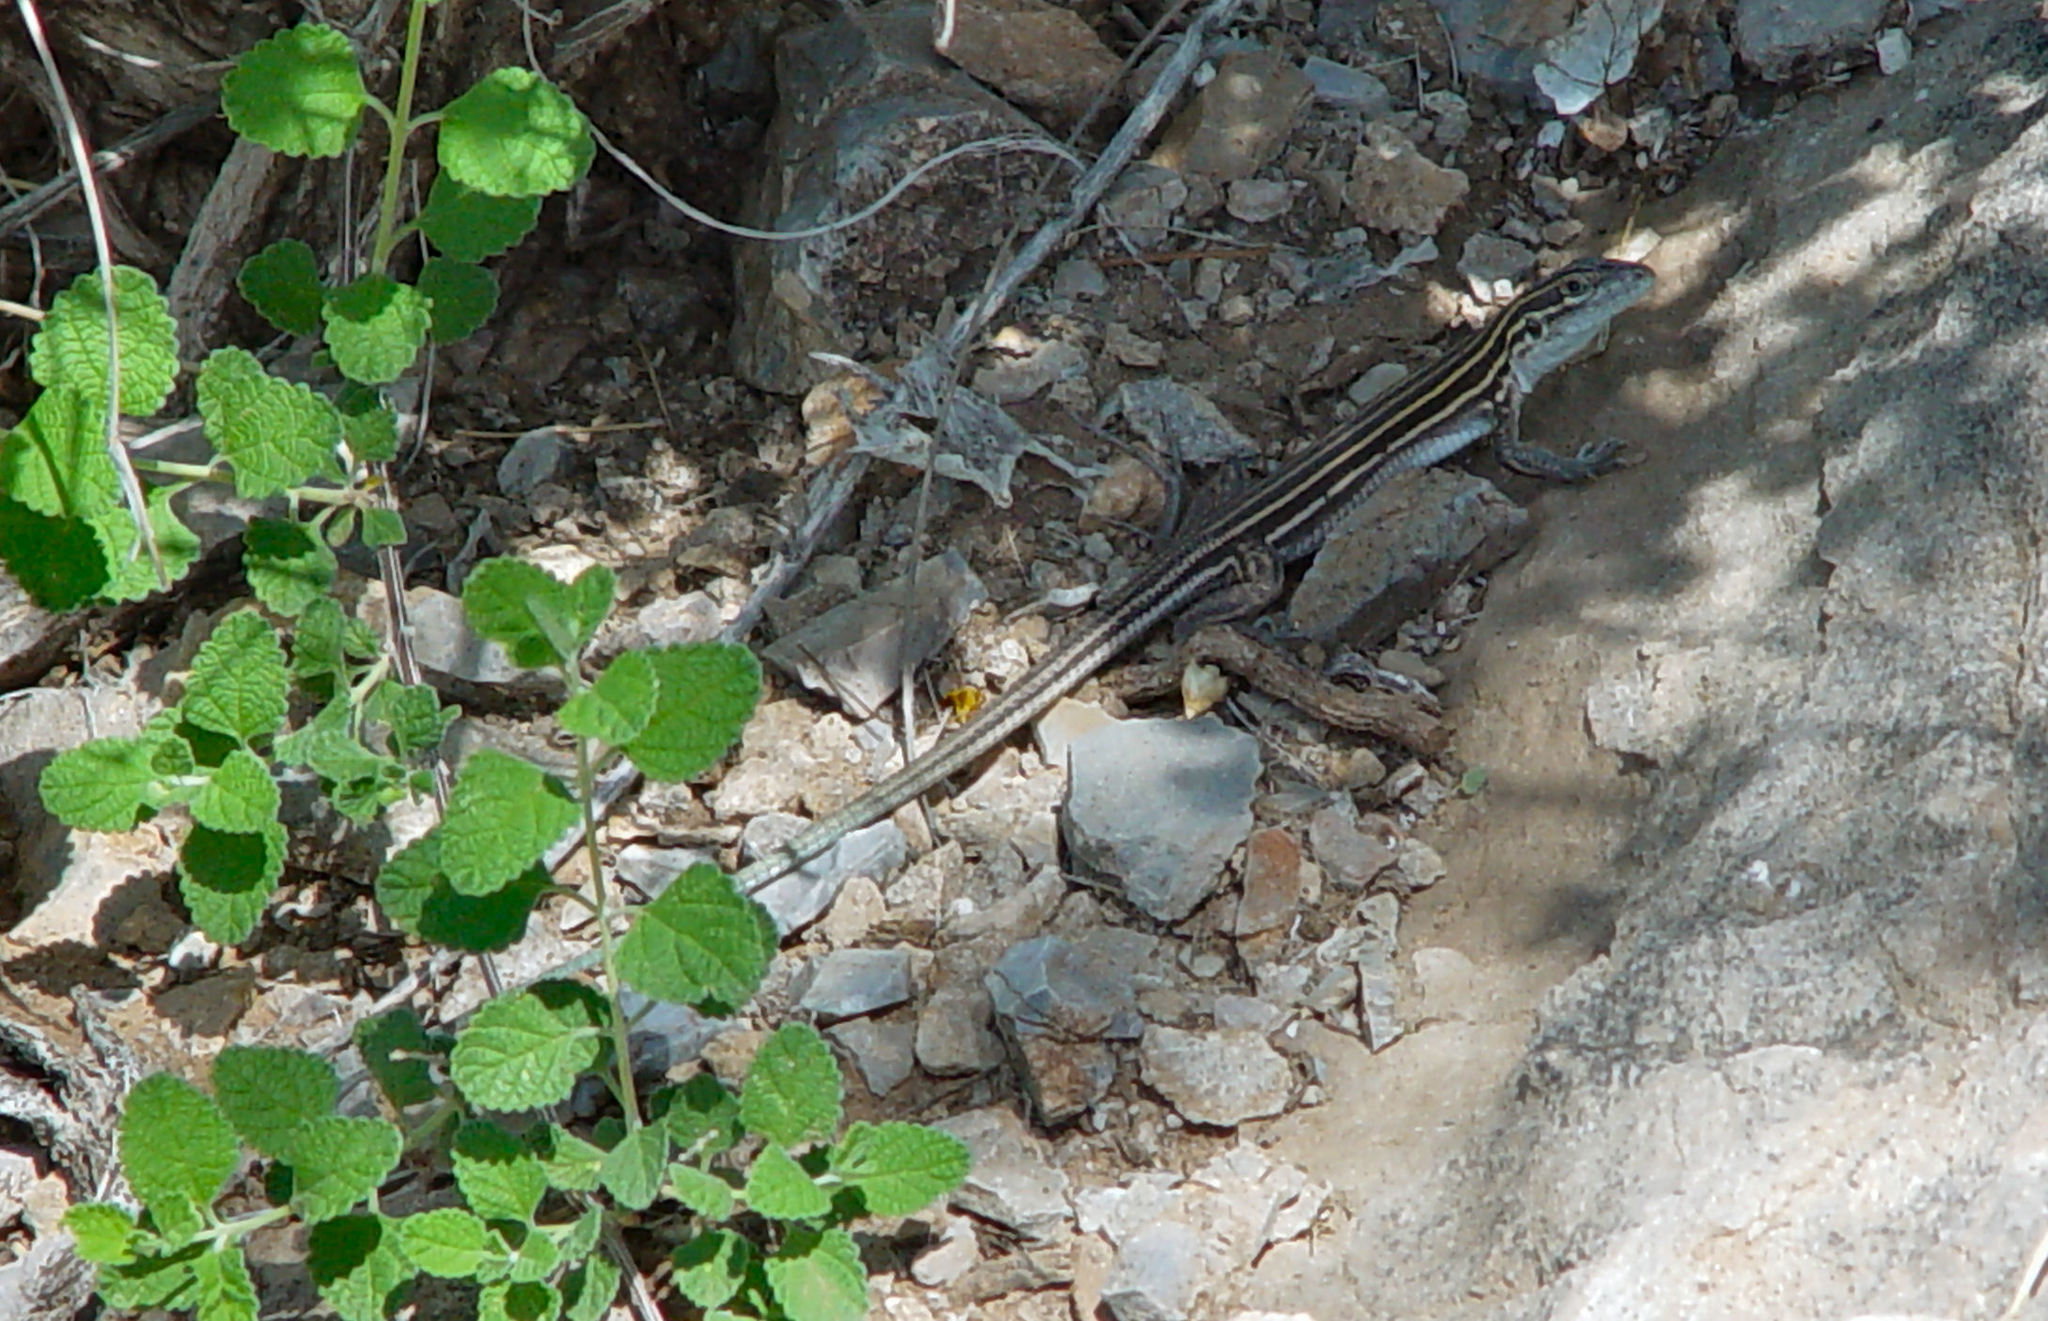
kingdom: Animalia
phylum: Chordata
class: Squamata
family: Teiidae
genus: Aspidoscelis
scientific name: Aspidoscelis uniparens
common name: Desert grassland whiptail
